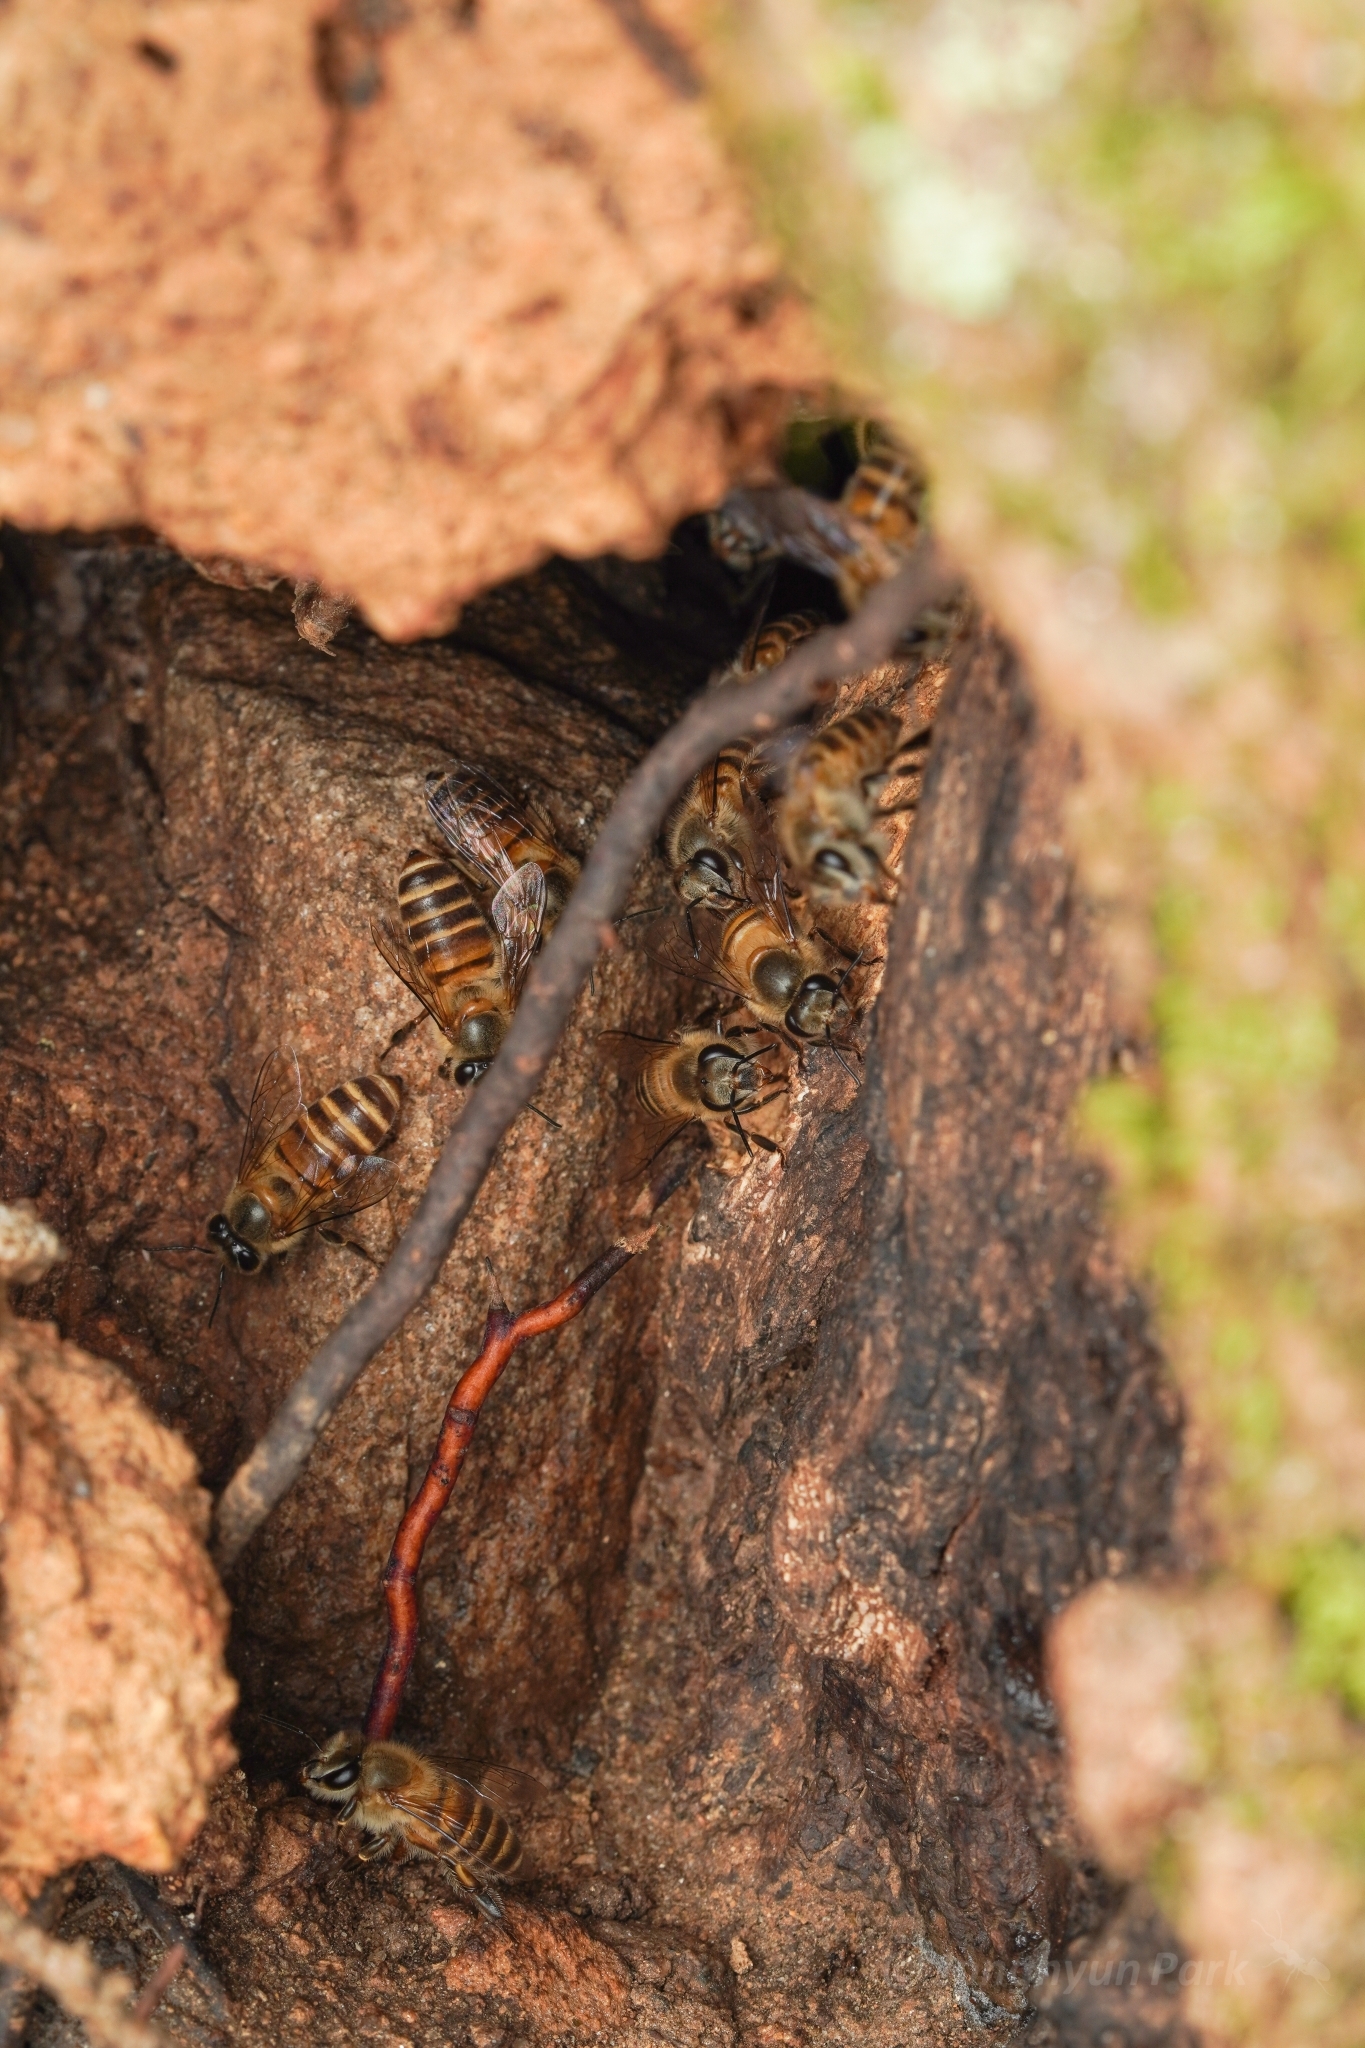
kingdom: Animalia
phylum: Arthropoda
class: Insecta
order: Hymenoptera
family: Apidae
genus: Apis
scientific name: Apis cerana
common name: Honey bee
